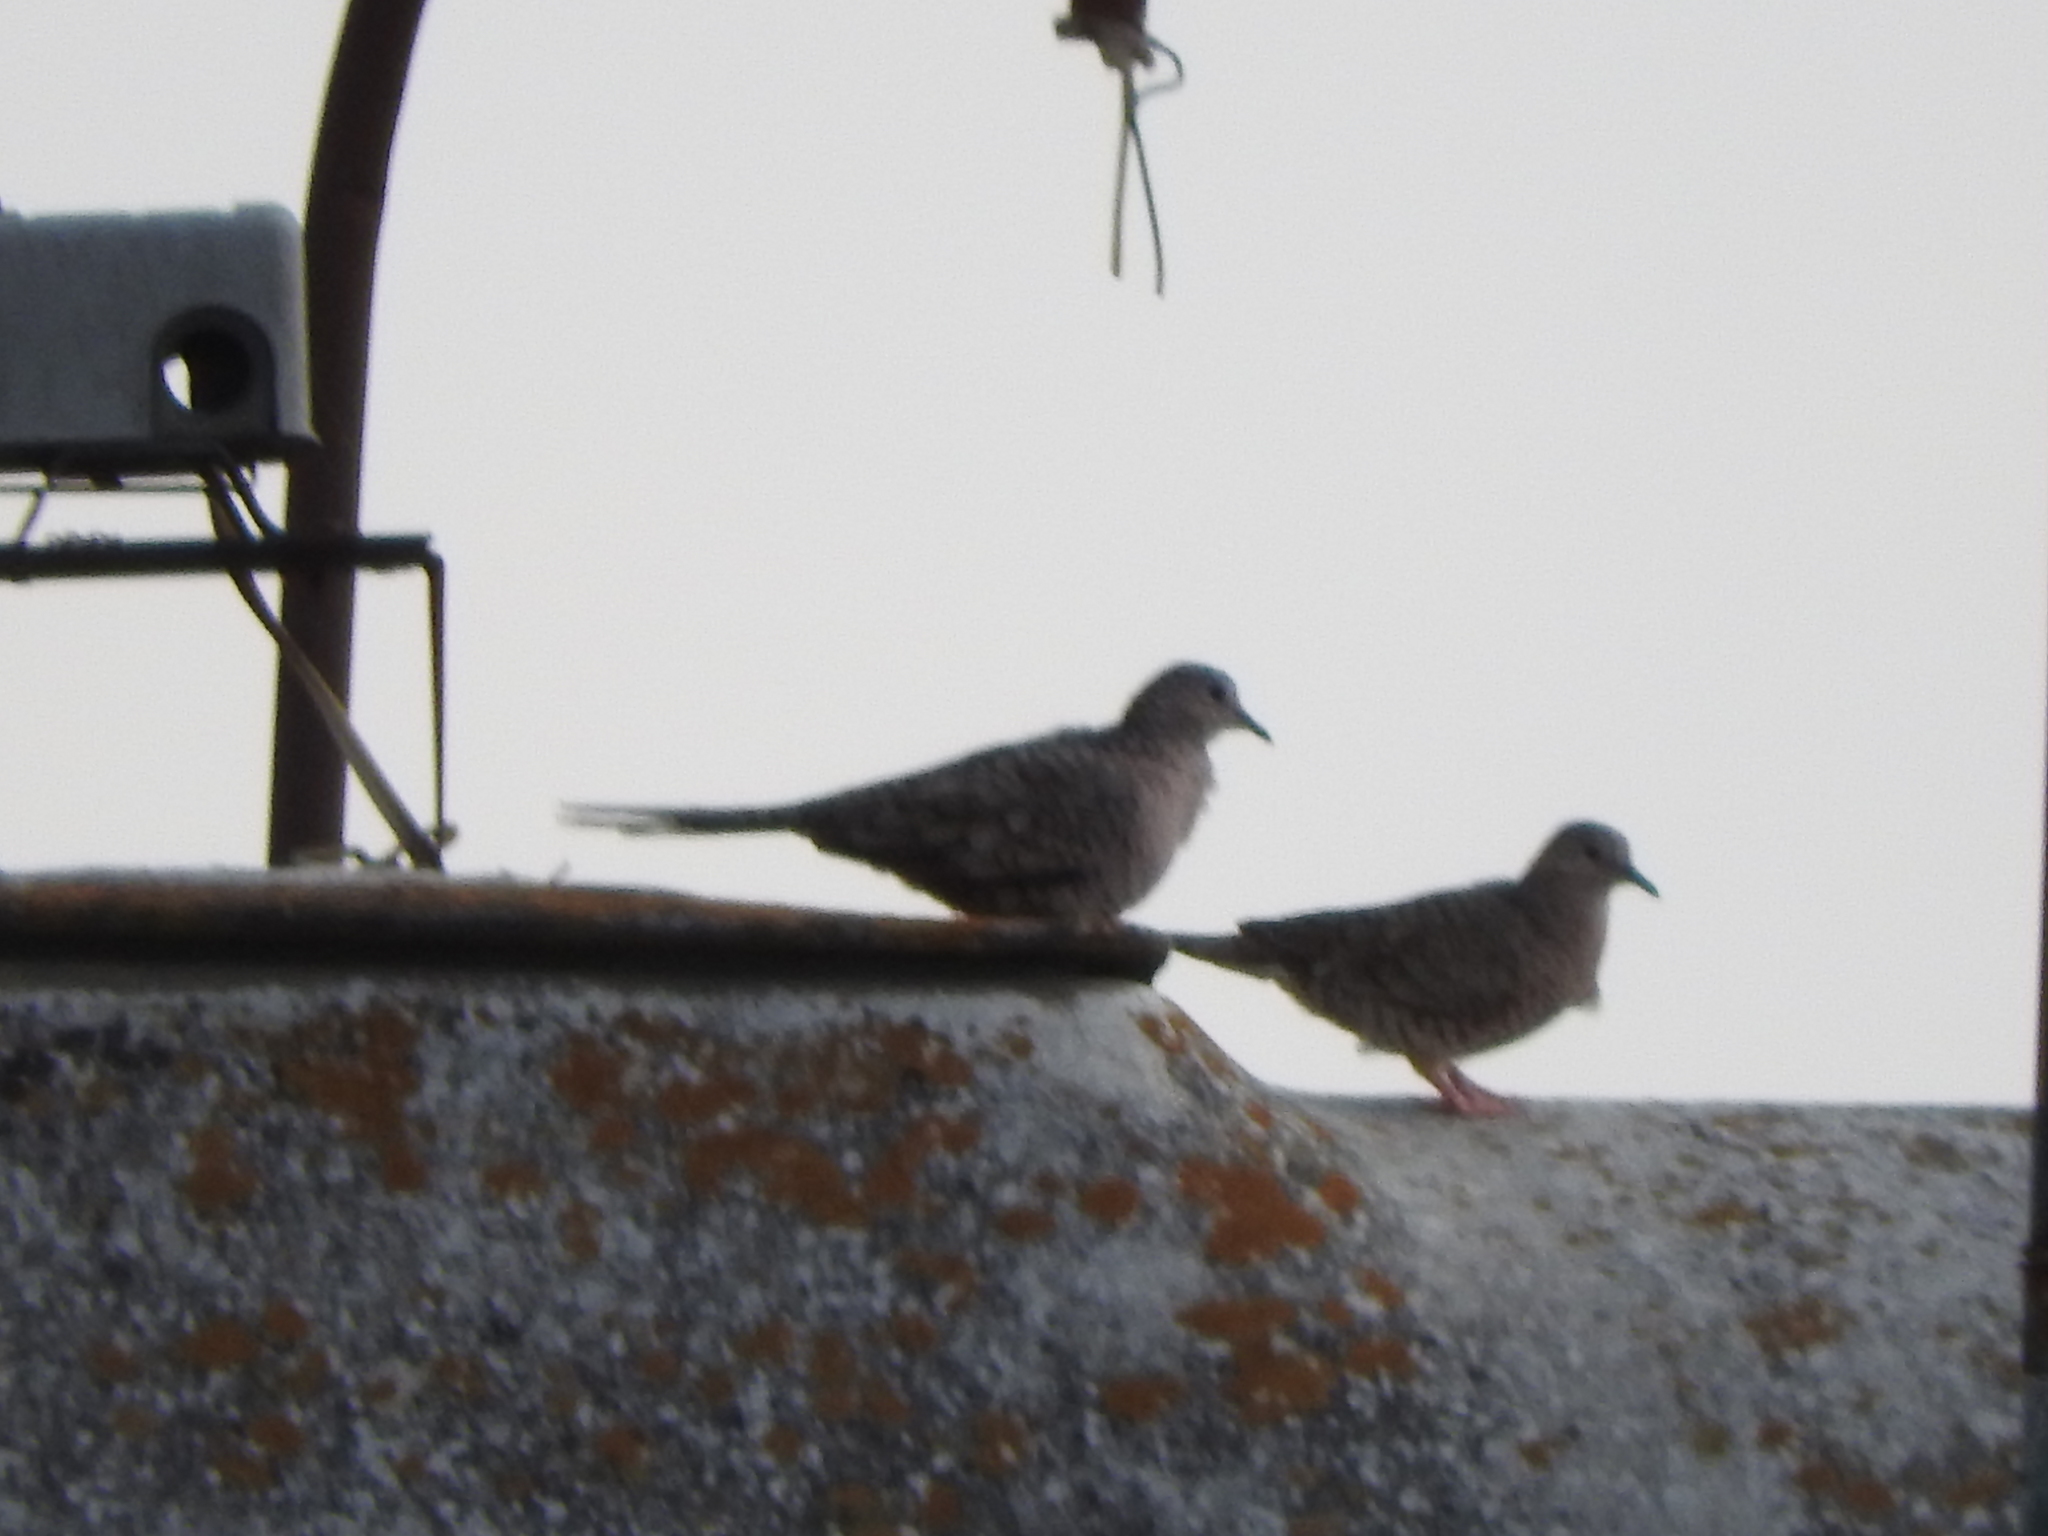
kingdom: Animalia
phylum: Chordata
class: Aves
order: Columbiformes
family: Columbidae
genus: Columbina
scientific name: Columbina inca
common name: Inca dove
